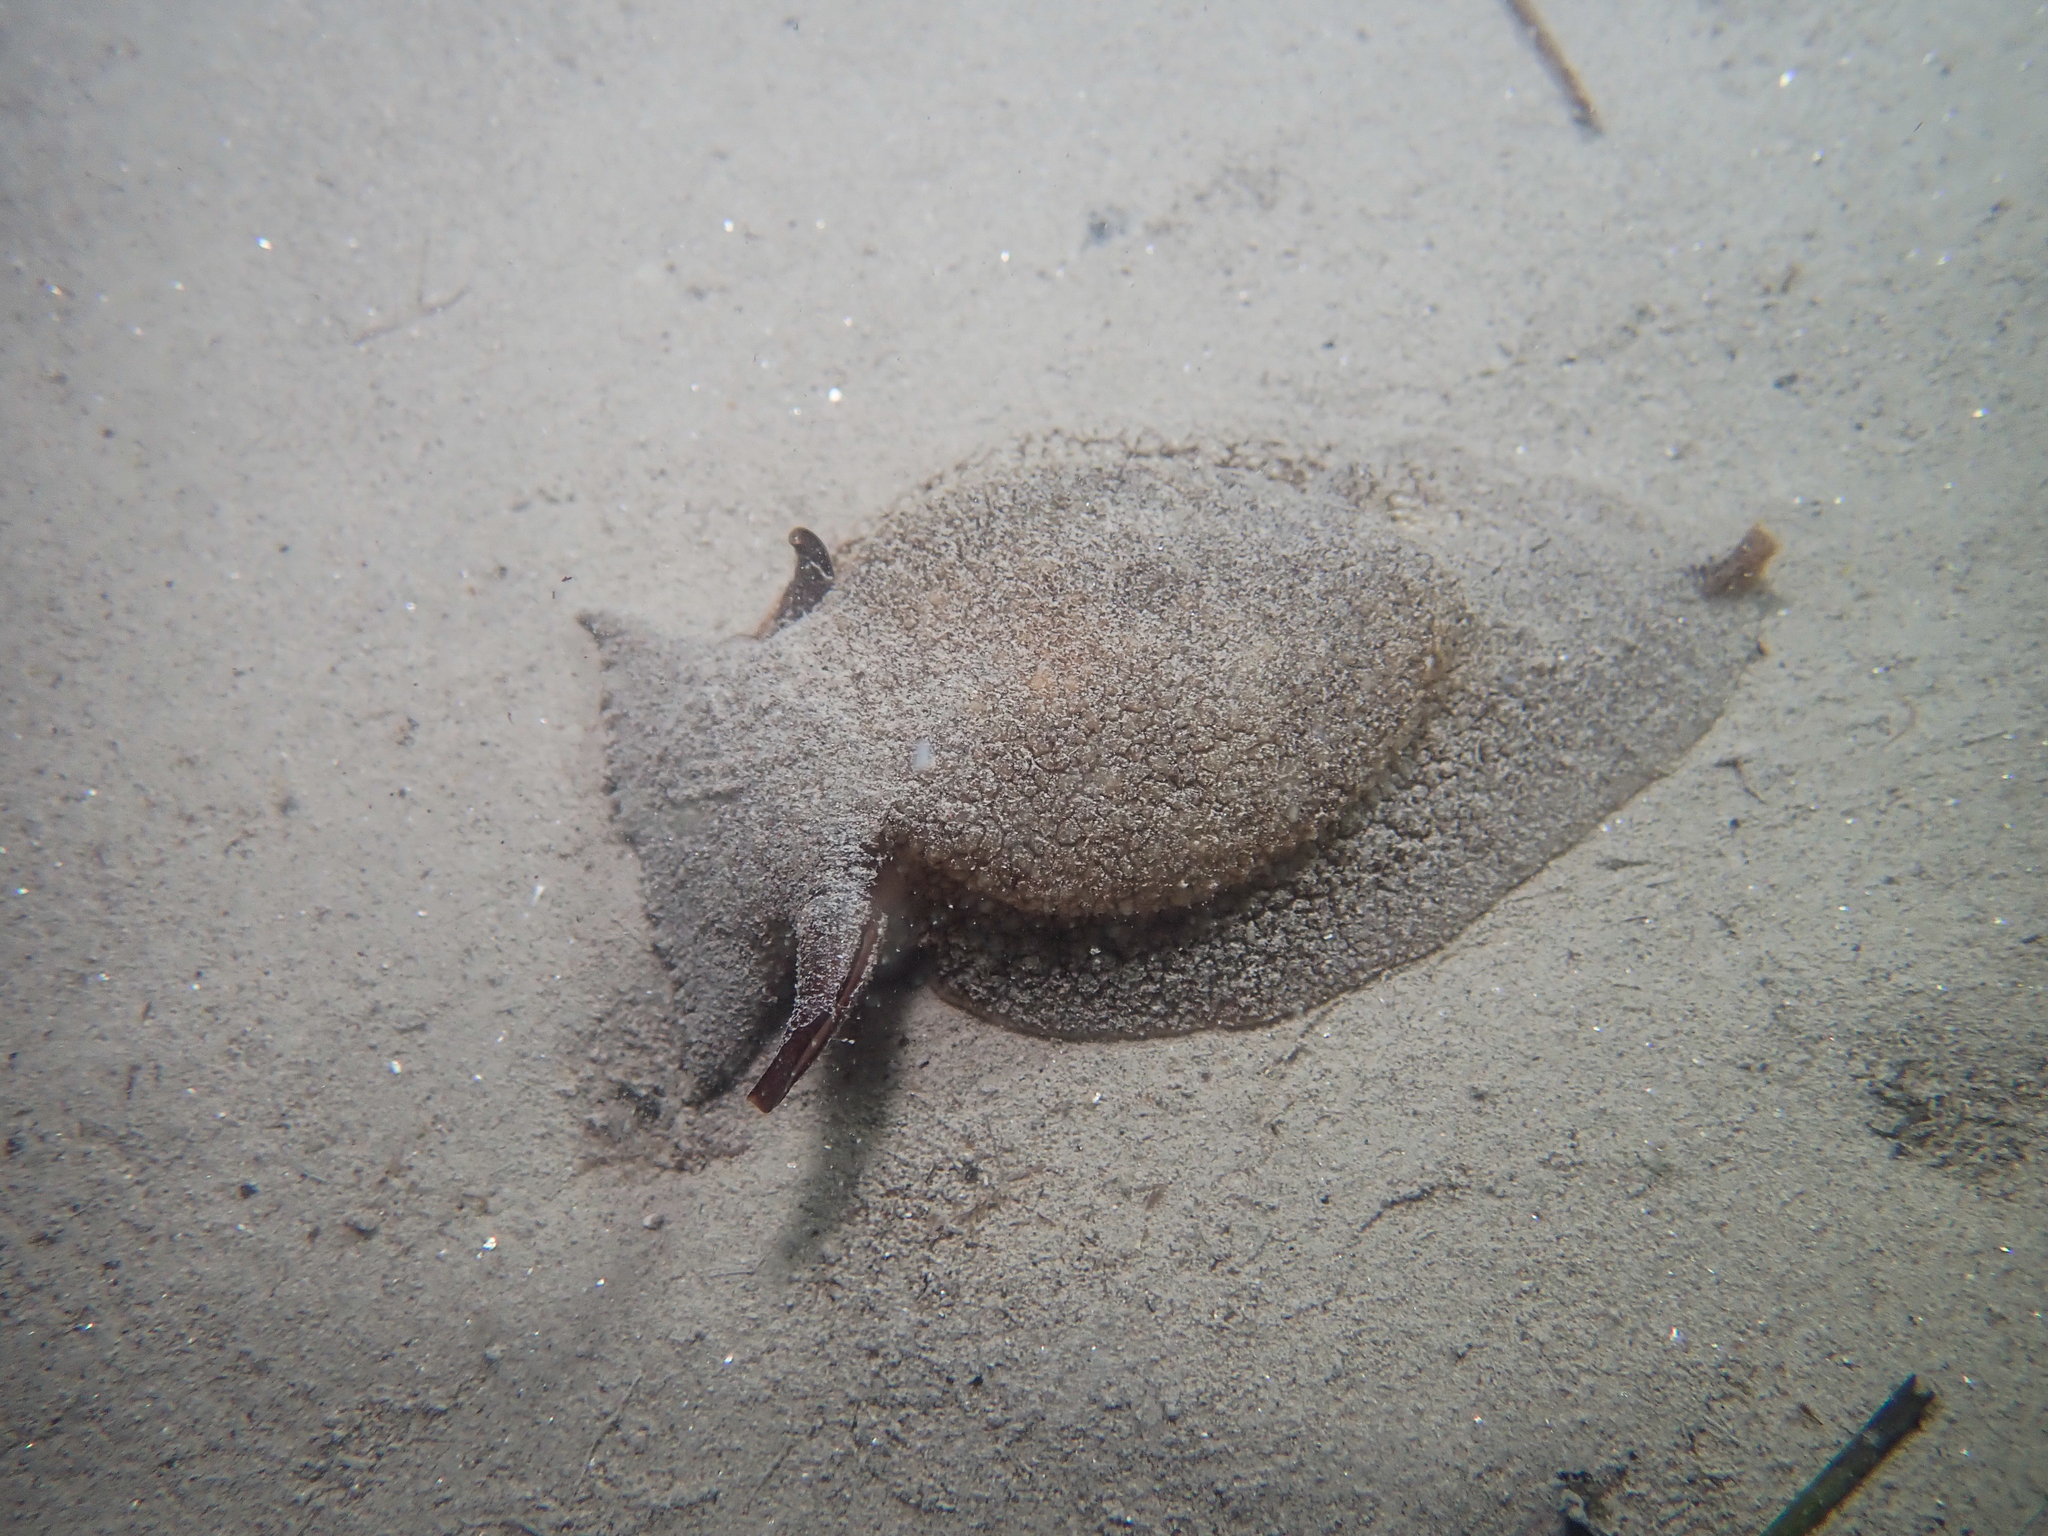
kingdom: Animalia
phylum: Mollusca
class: Gastropoda
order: Pleurobranchida
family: Pleurobranchaeidae
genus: Pleurobranchaea
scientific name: Pleurobranchaea meckeli
